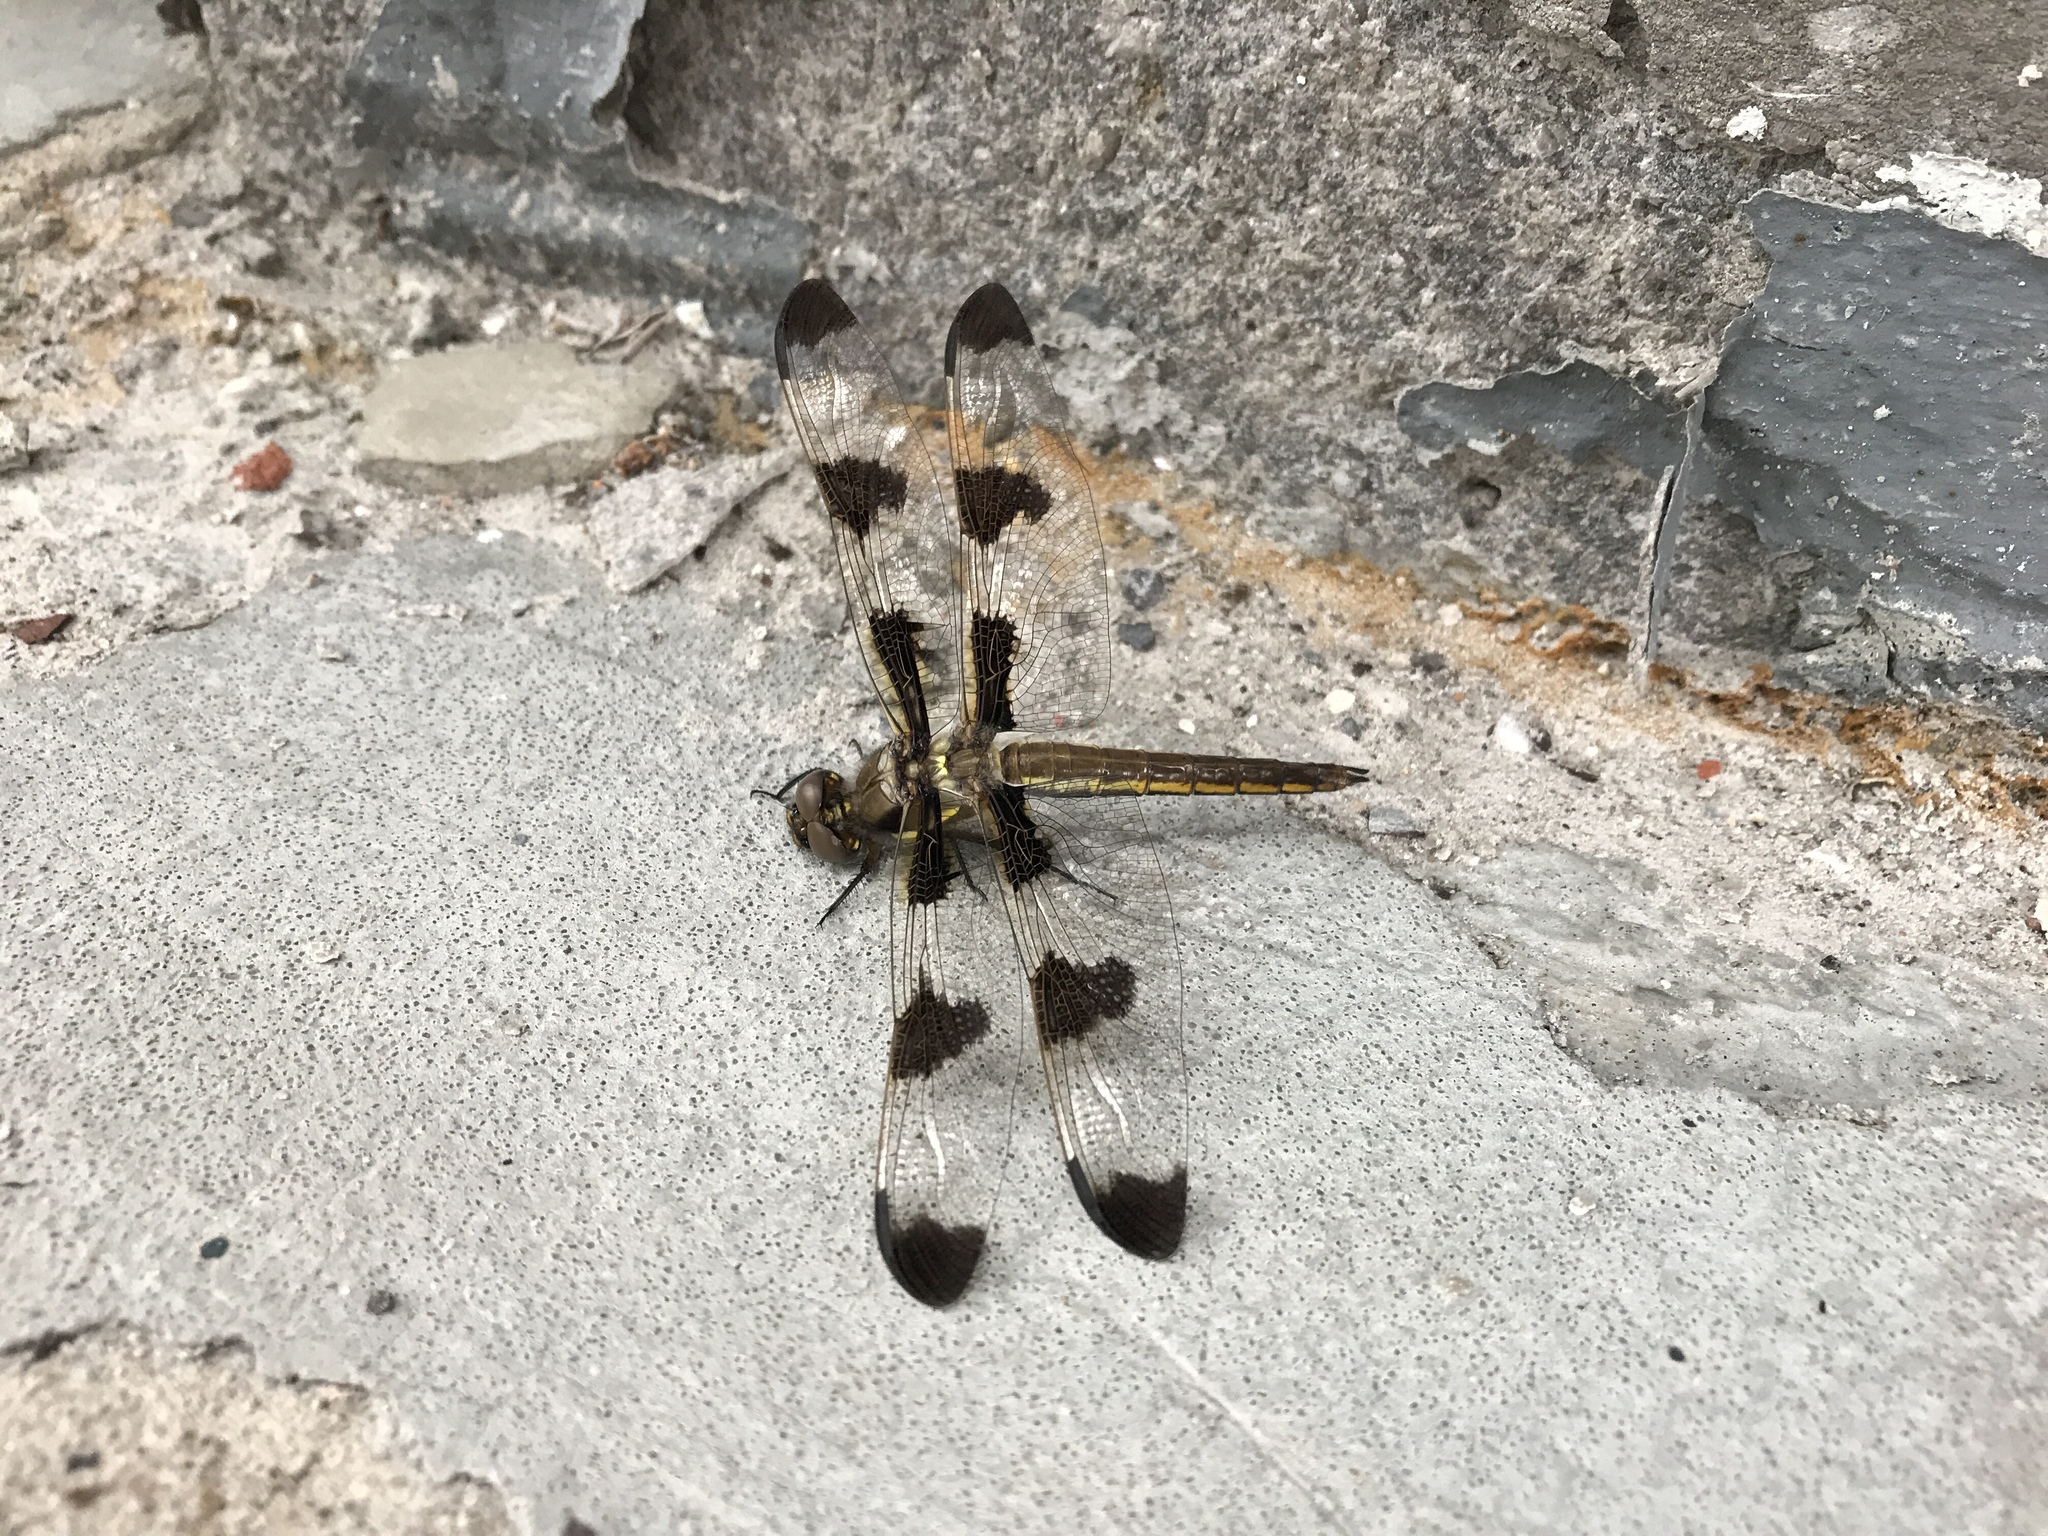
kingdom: Animalia
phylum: Arthropoda
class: Insecta
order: Odonata
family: Libellulidae
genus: Libellula
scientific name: Libellula pulchella
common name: Twelve-spotted skimmer
